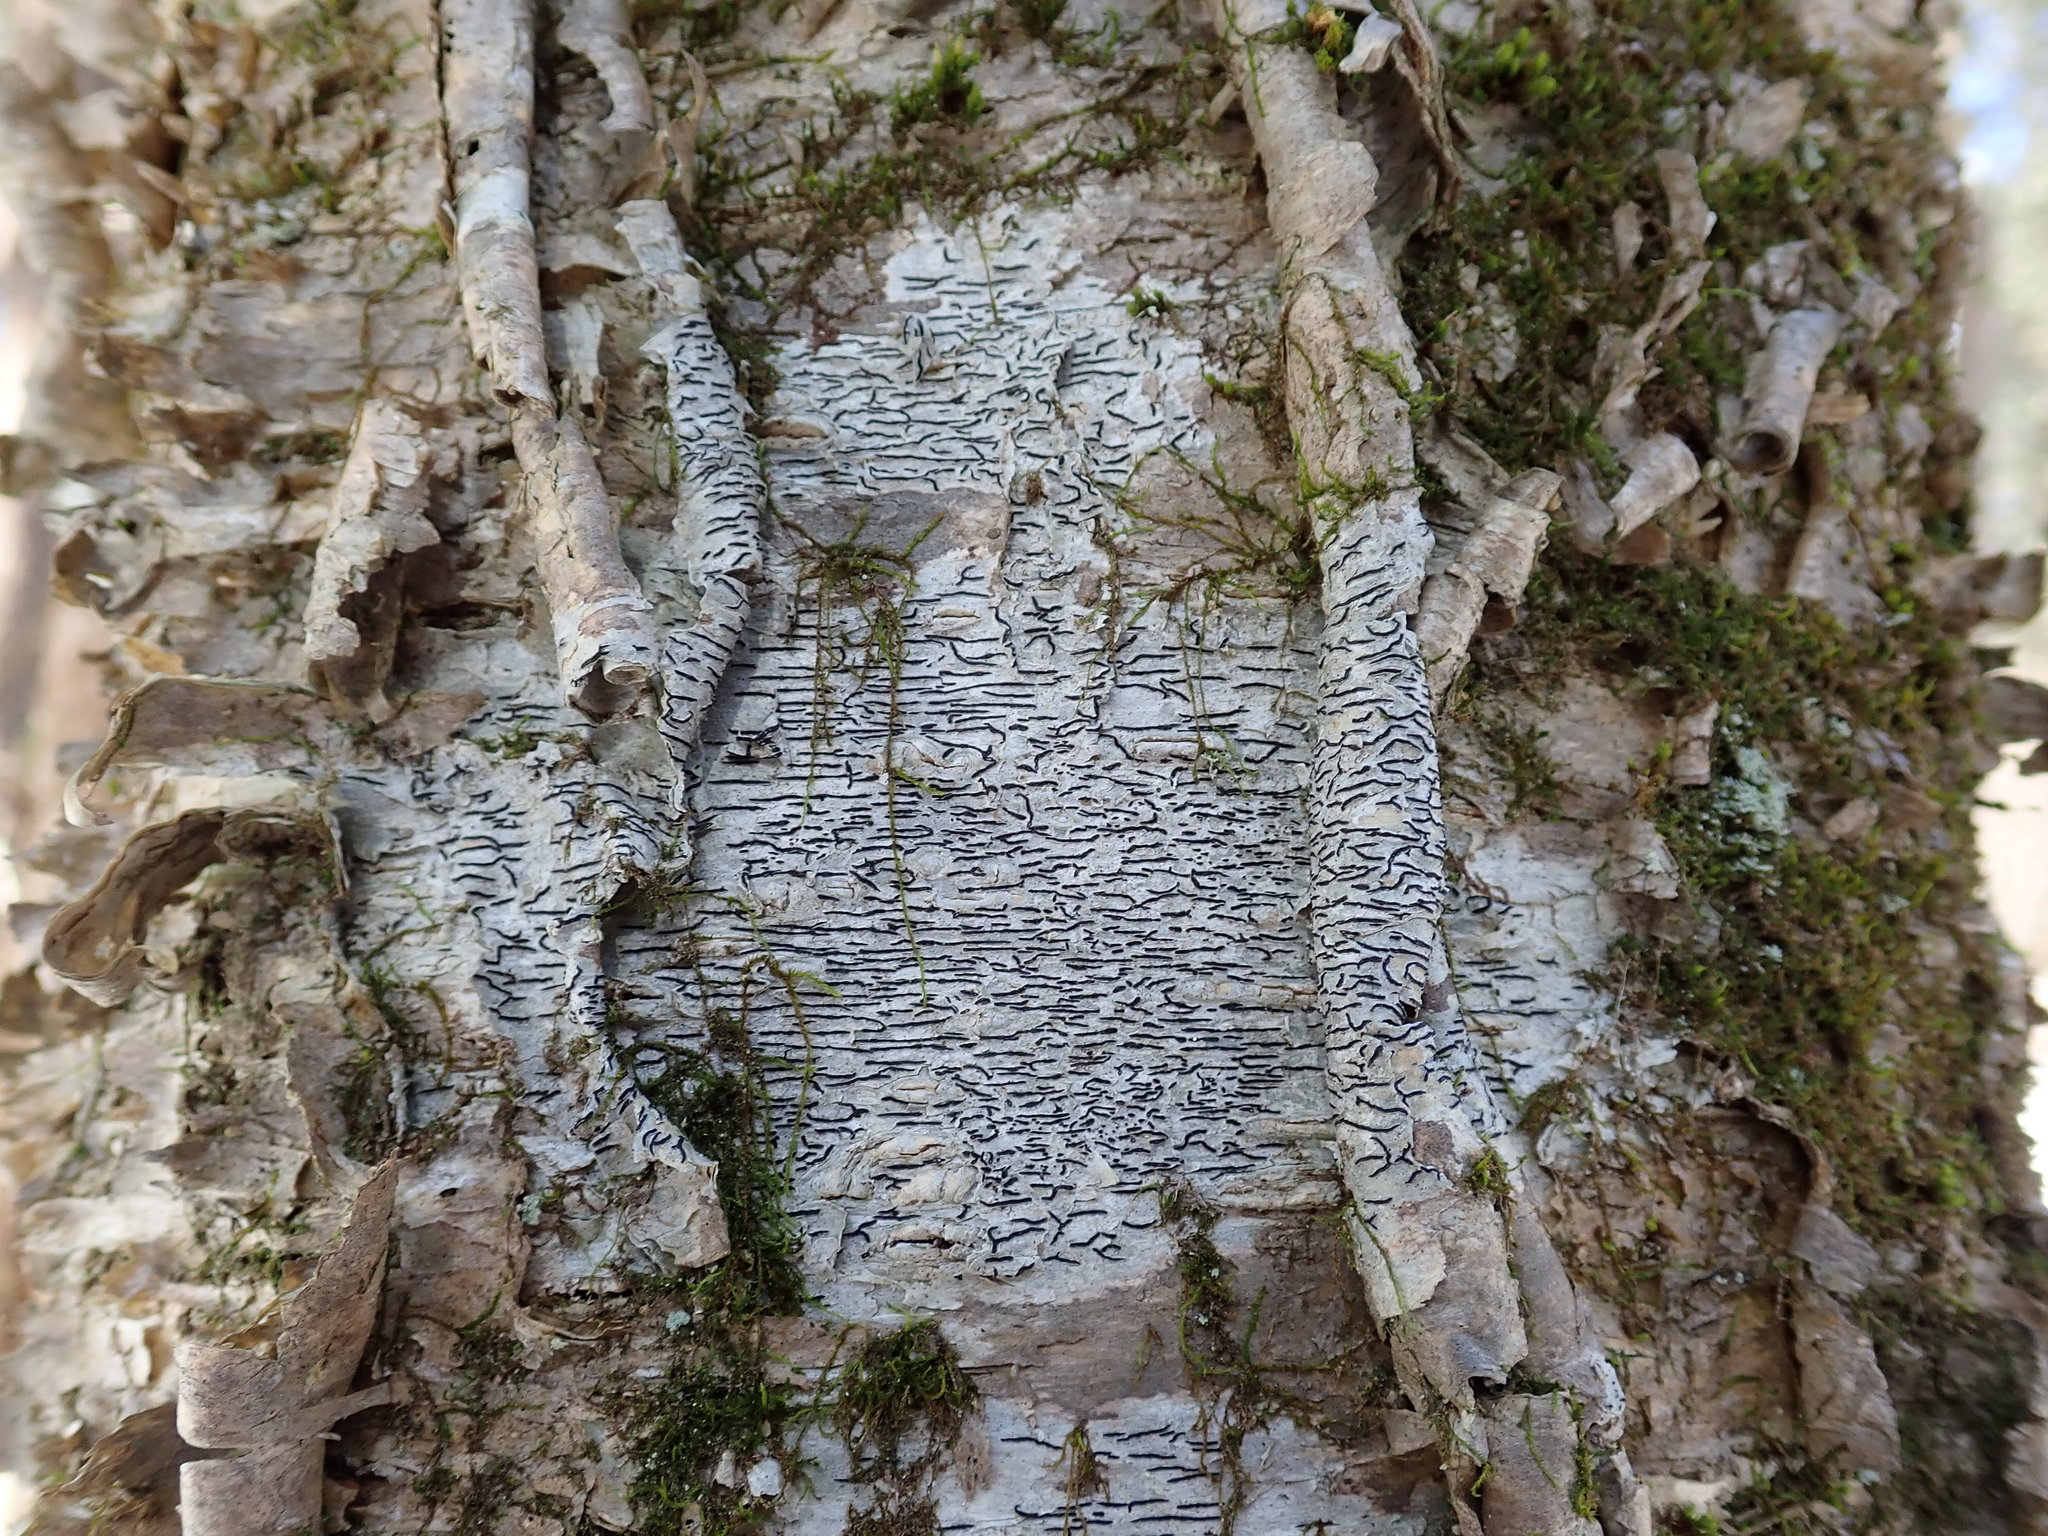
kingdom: Fungi
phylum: Ascomycota
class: Lecanoromycetes
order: Ostropales
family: Graphidaceae
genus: Graphis
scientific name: Graphis scripta
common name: Script lichen
